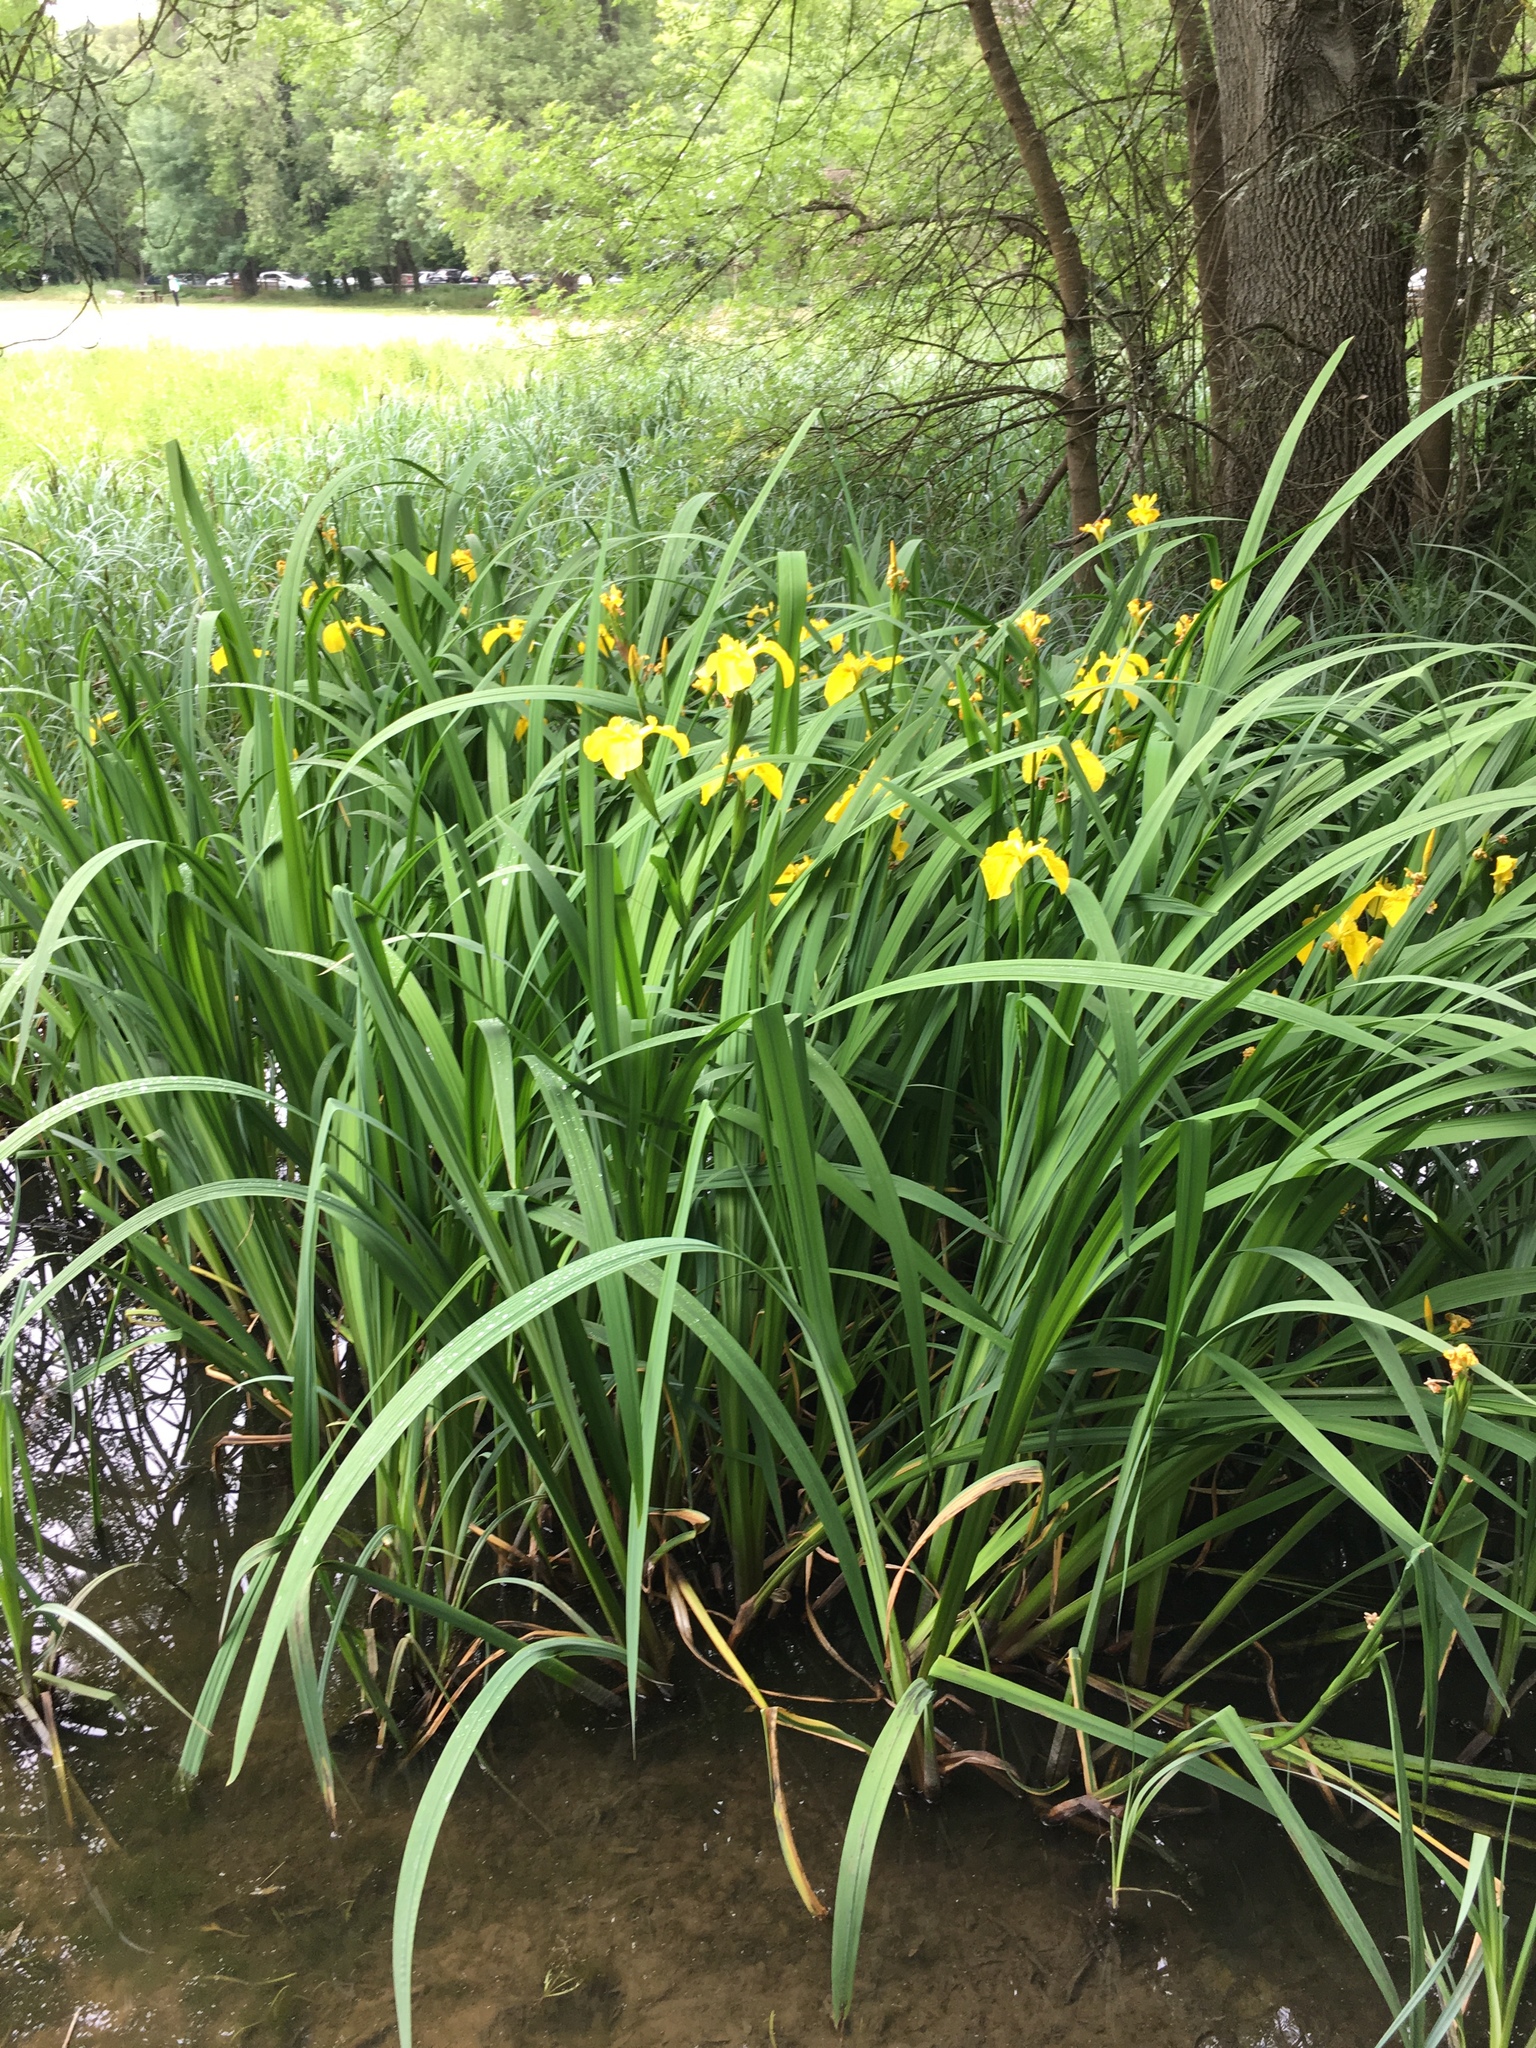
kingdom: Plantae
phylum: Tracheophyta
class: Liliopsida
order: Asparagales
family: Iridaceae
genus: Iris
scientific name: Iris pseudacorus
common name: Yellow flag
